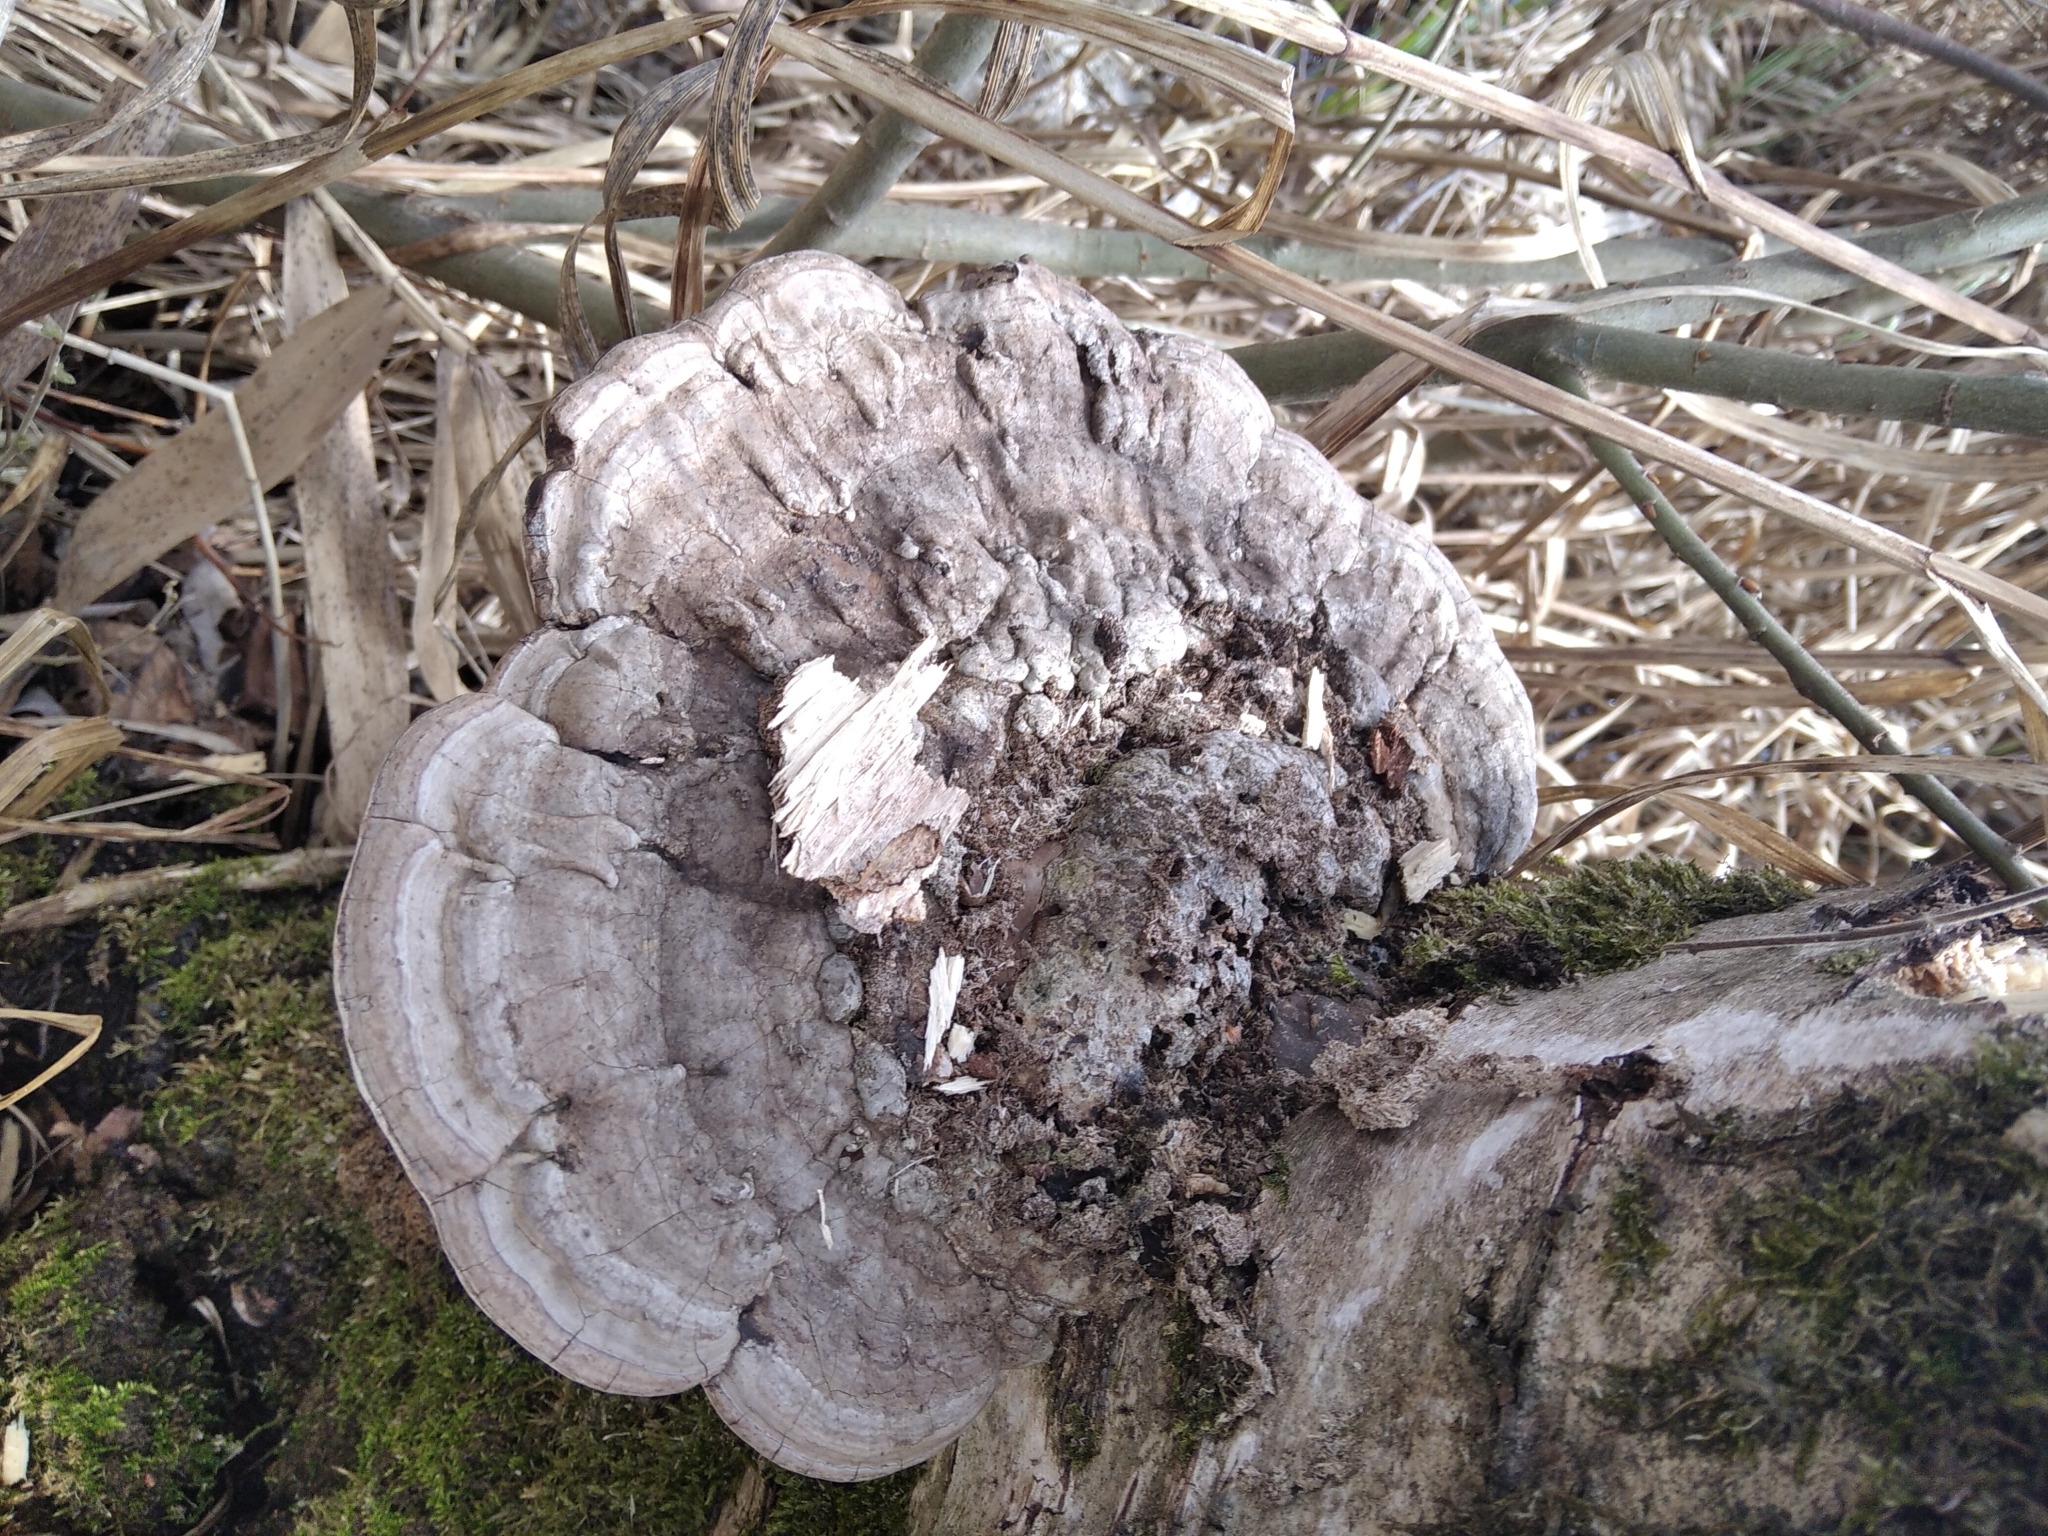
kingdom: Fungi
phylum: Basidiomycota
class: Agaricomycetes
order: Polyporales
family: Polyporaceae
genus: Ganoderma
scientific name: Ganoderma applanatum
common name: Artist's bracket
